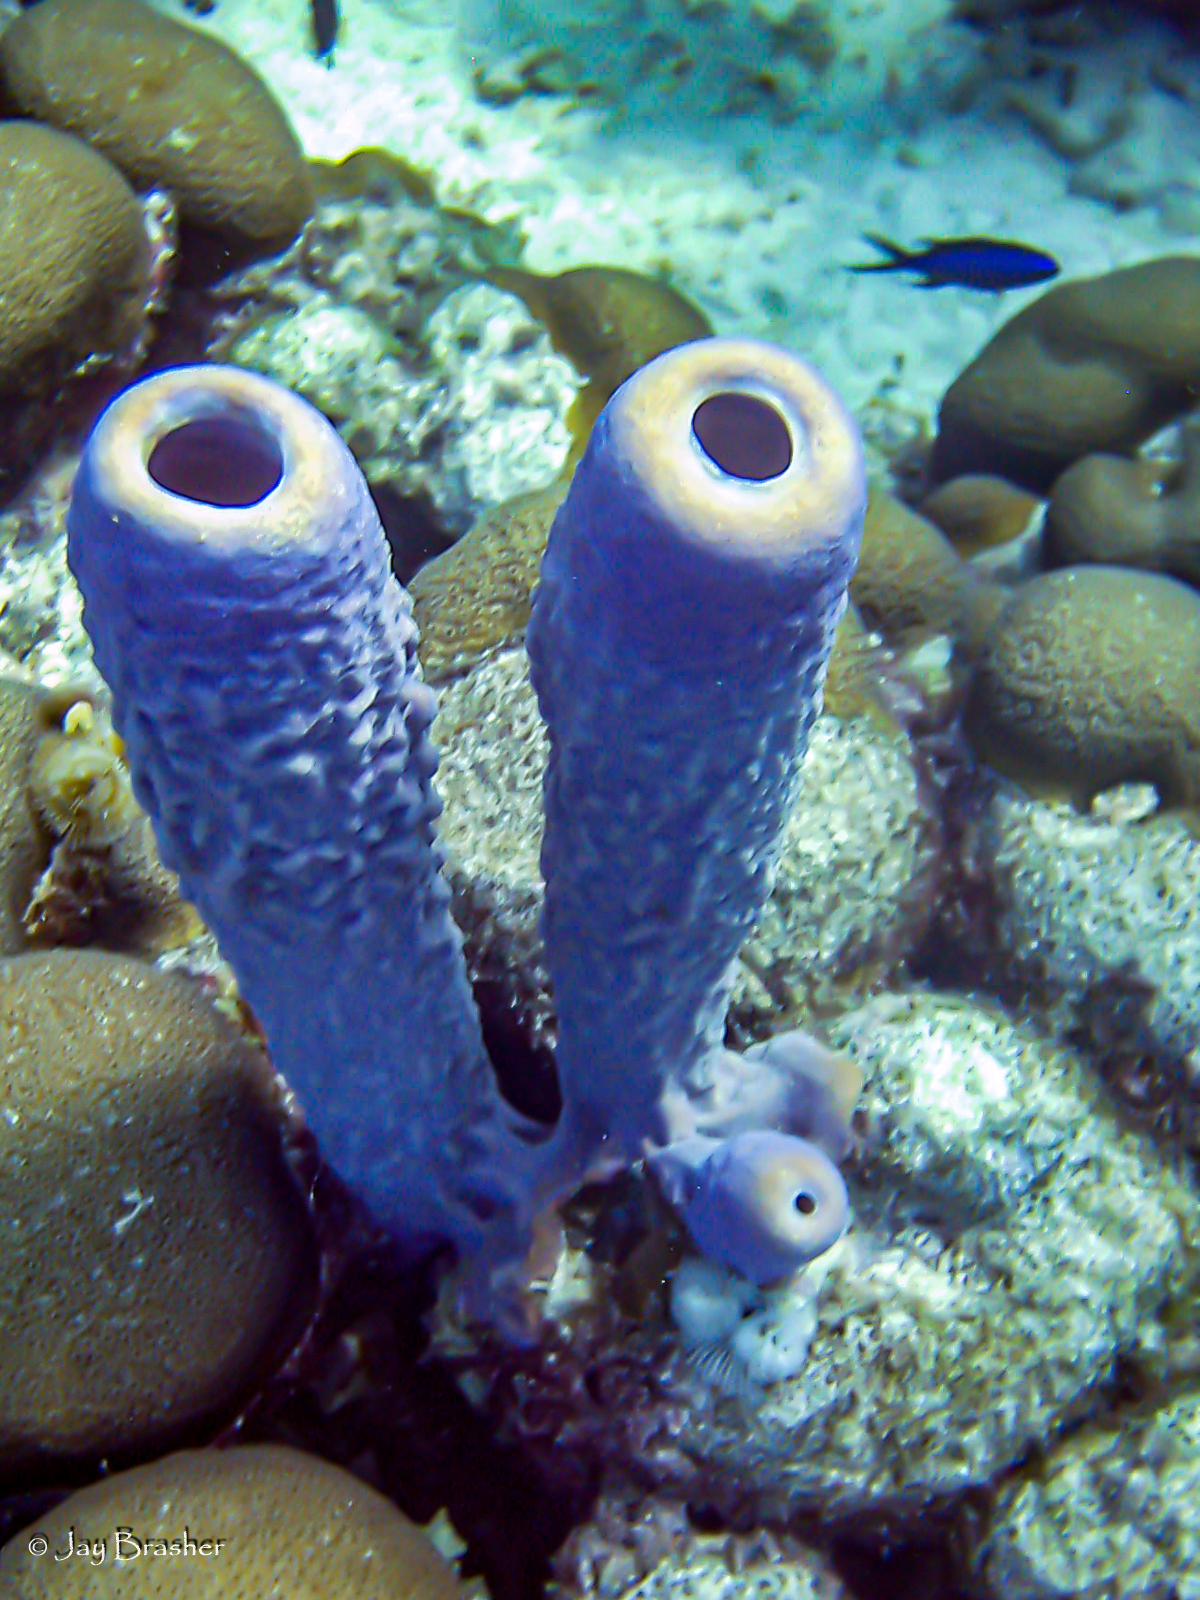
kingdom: Animalia
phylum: Porifera
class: Demospongiae
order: Verongiida
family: Aplysinidae
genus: Aplysina
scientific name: Aplysina archeri
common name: Stove-pipe sponge
